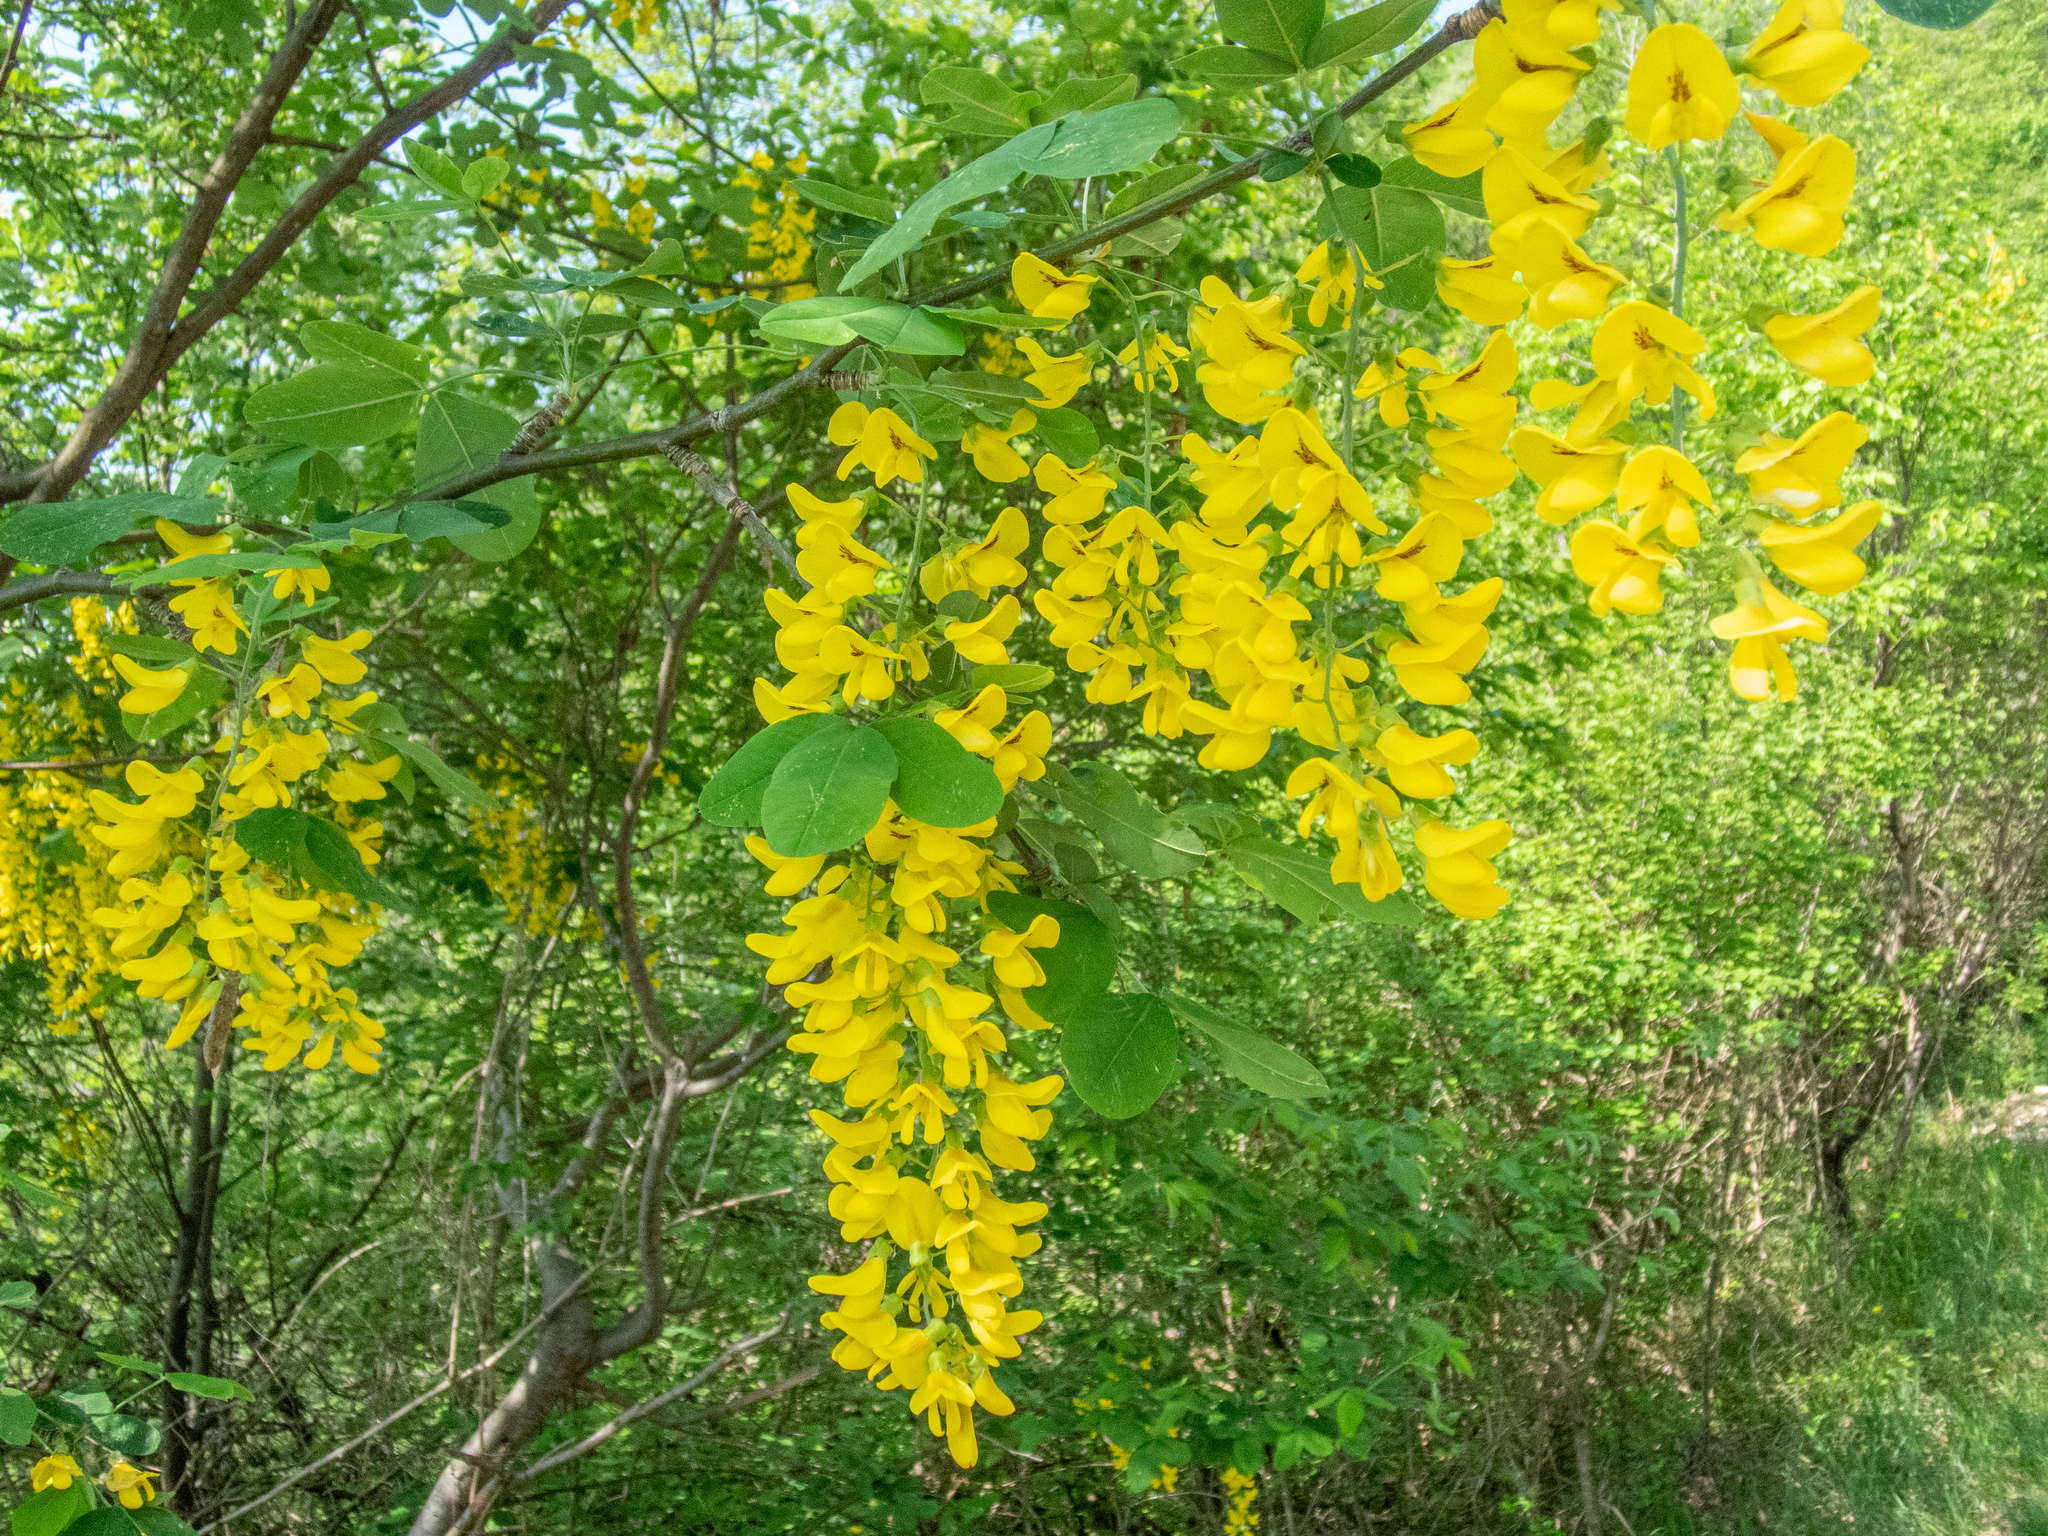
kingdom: Plantae
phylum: Tracheophyta
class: Magnoliopsida
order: Fabales
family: Fabaceae
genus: Laburnum
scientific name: Laburnum anagyroides
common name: Laburnum
